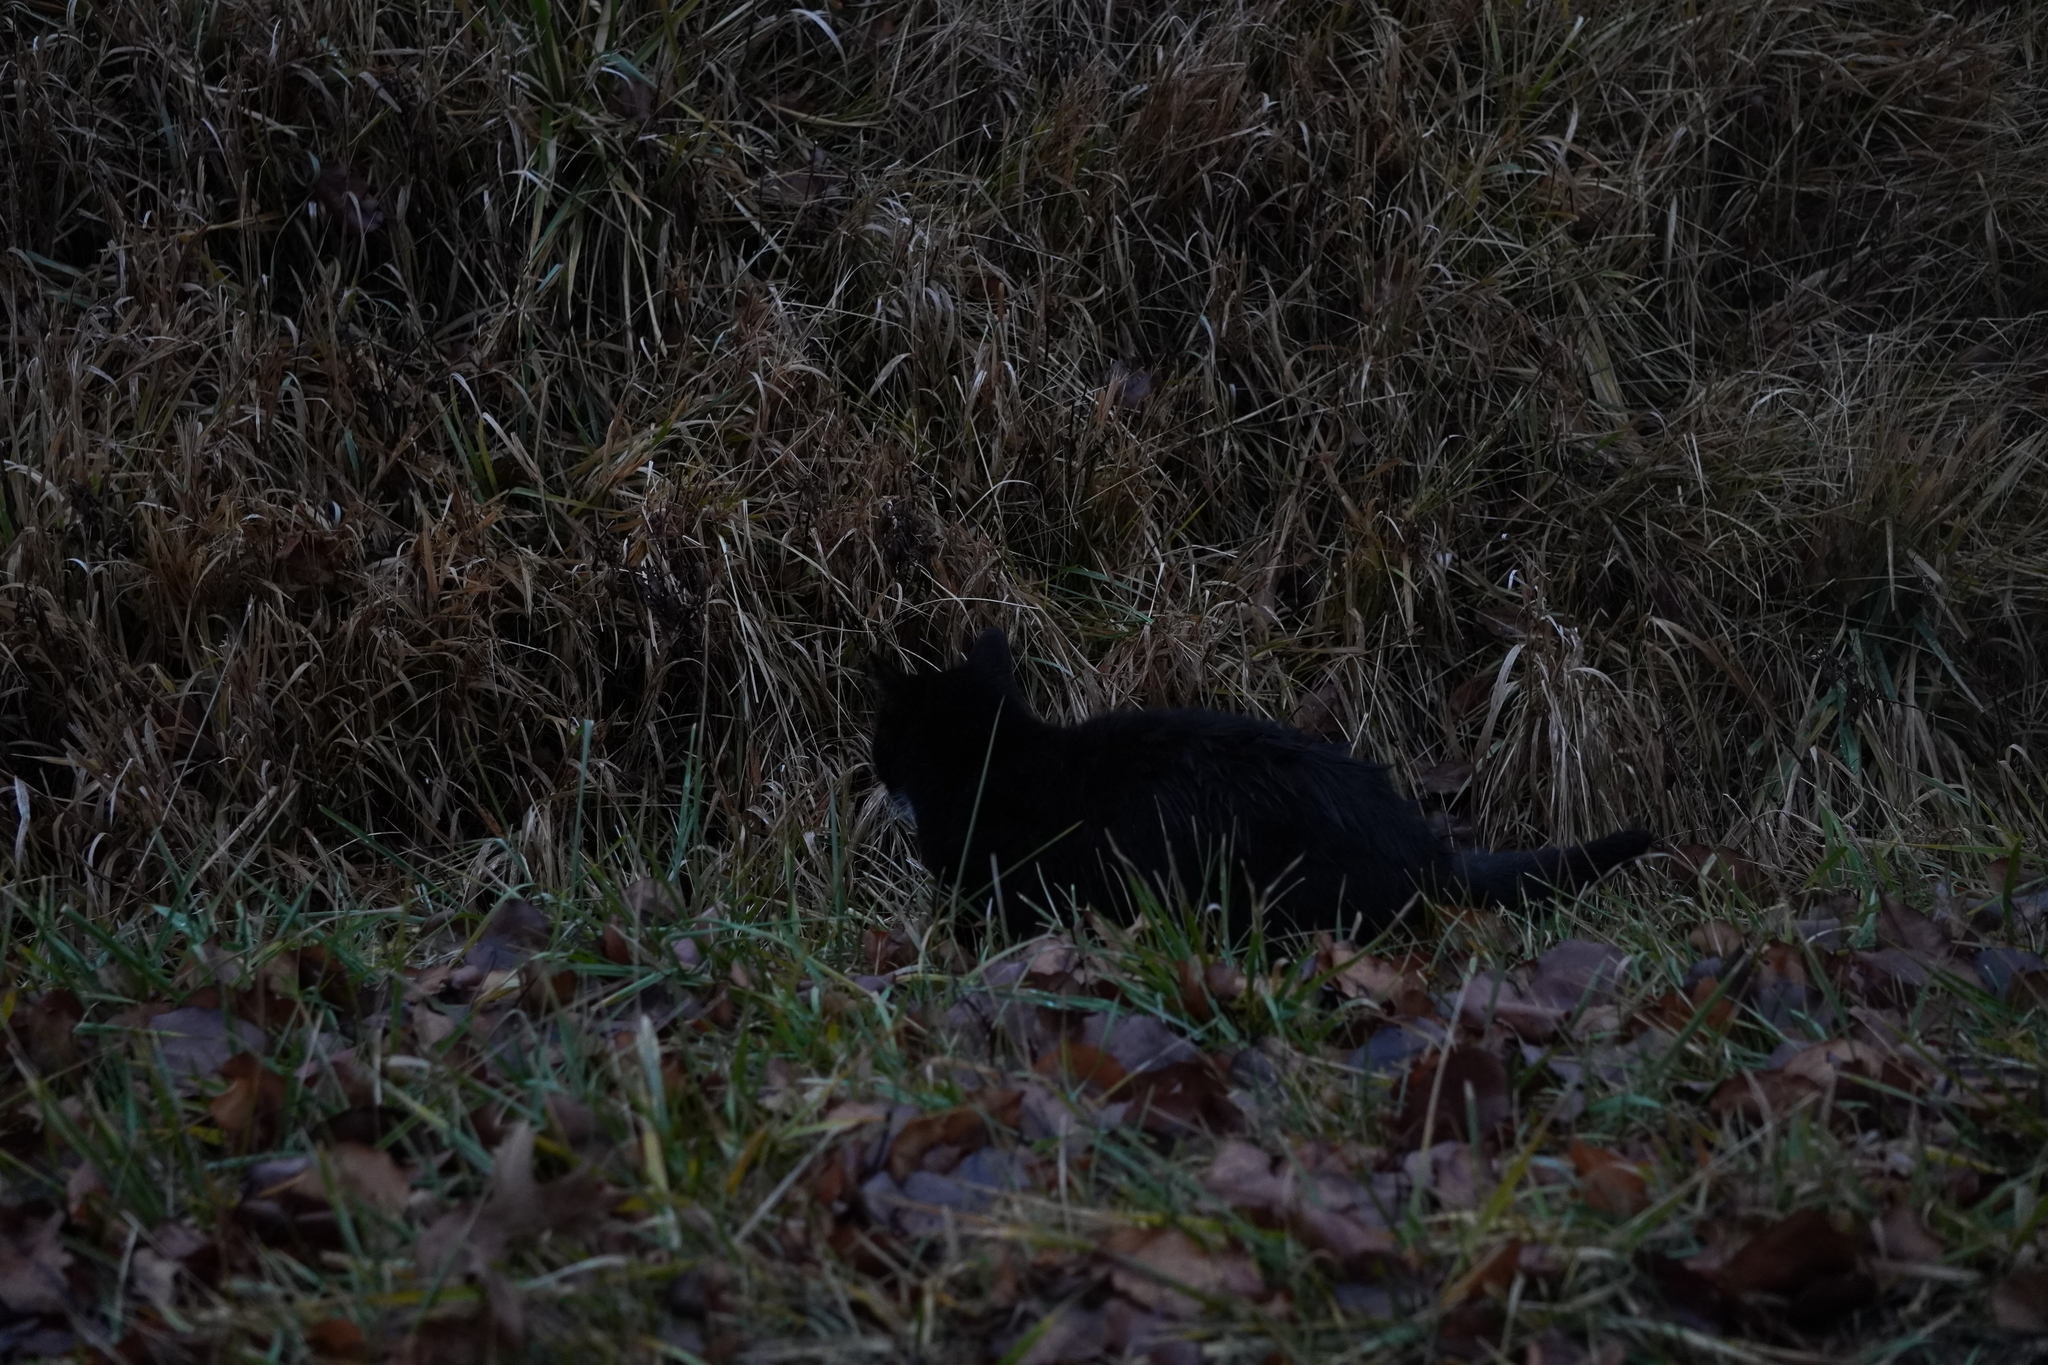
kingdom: Animalia
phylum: Chordata
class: Mammalia
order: Carnivora
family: Felidae
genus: Felis
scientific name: Felis catus
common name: Domestic cat
